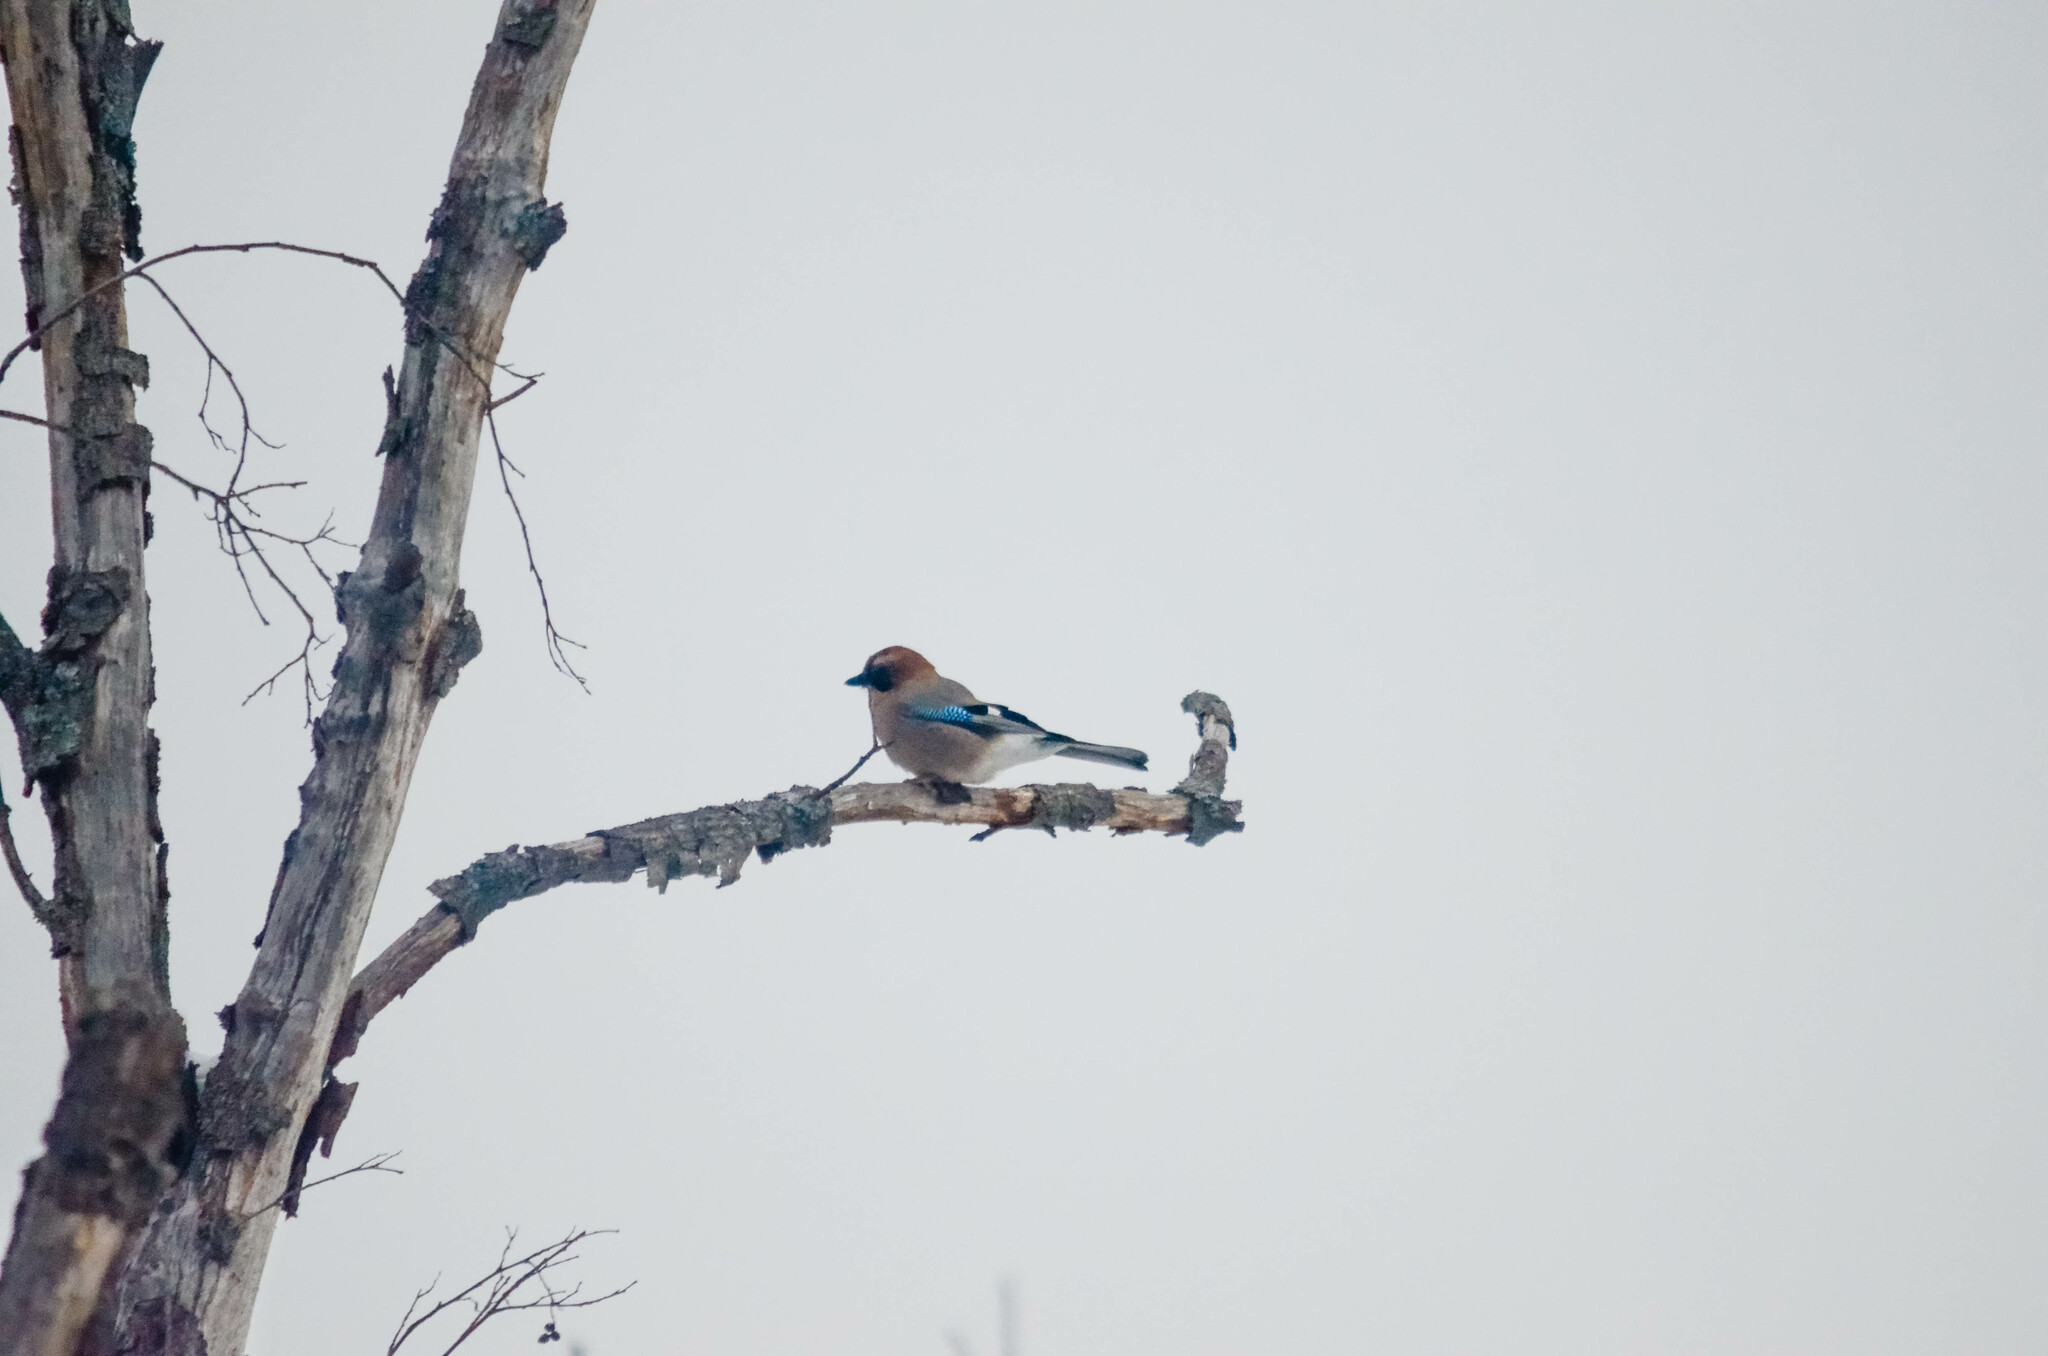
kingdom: Animalia
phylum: Chordata
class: Aves
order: Passeriformes
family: Corvidae
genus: Garrulus
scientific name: Garrulus glandarius
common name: Eurasian jay
